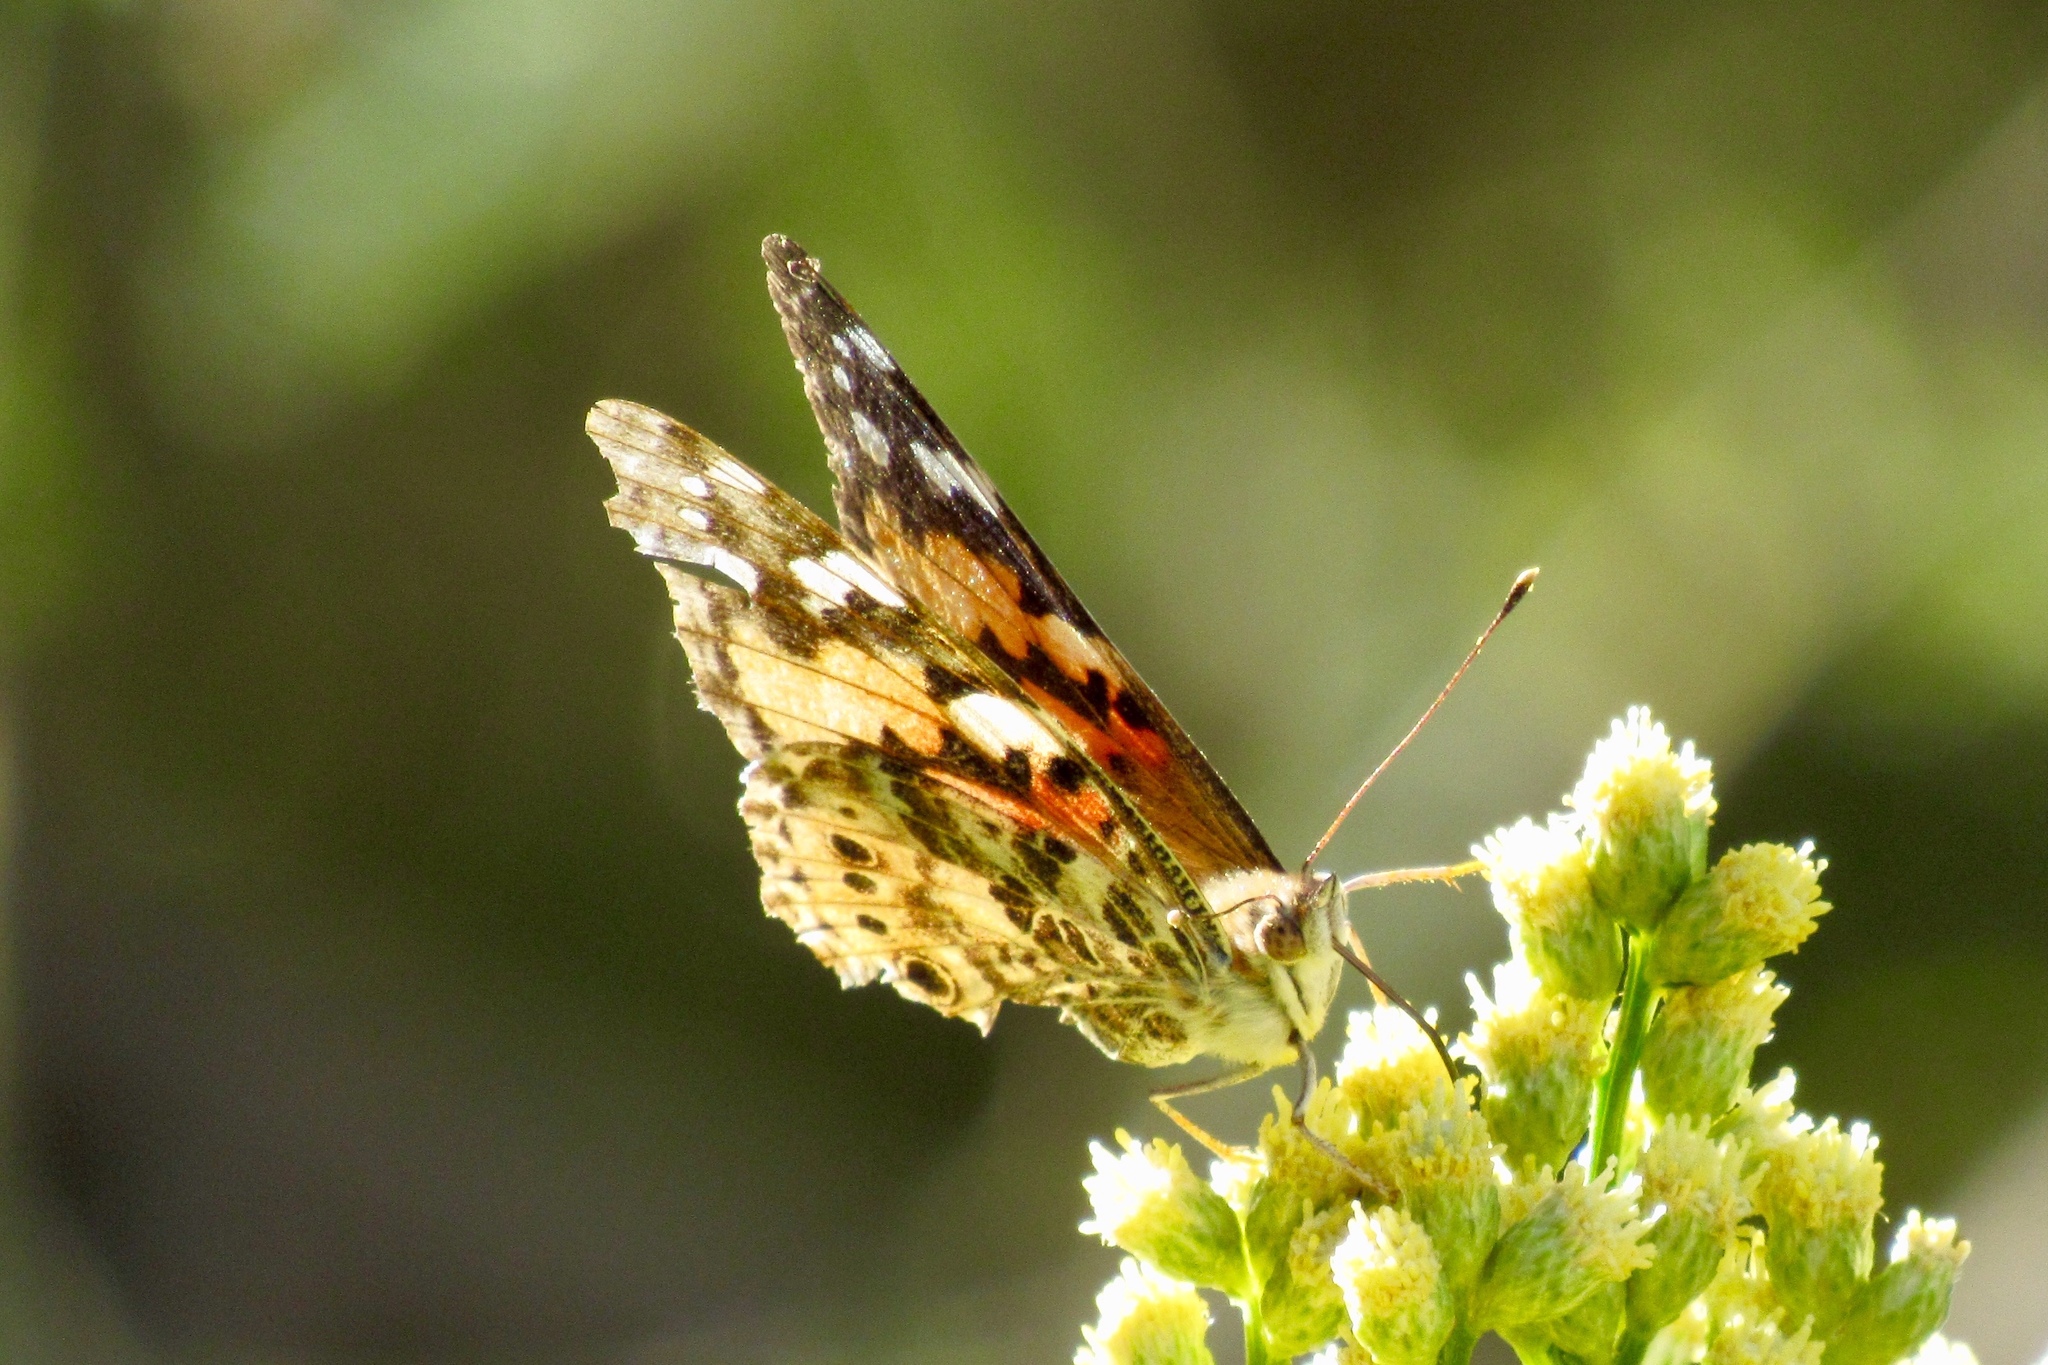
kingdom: Animalia
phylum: Arthropoda
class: Insecta
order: Lepidoptera
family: Nymphalidae
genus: Vanessa
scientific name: Vanessa cardui
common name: Painted lady
